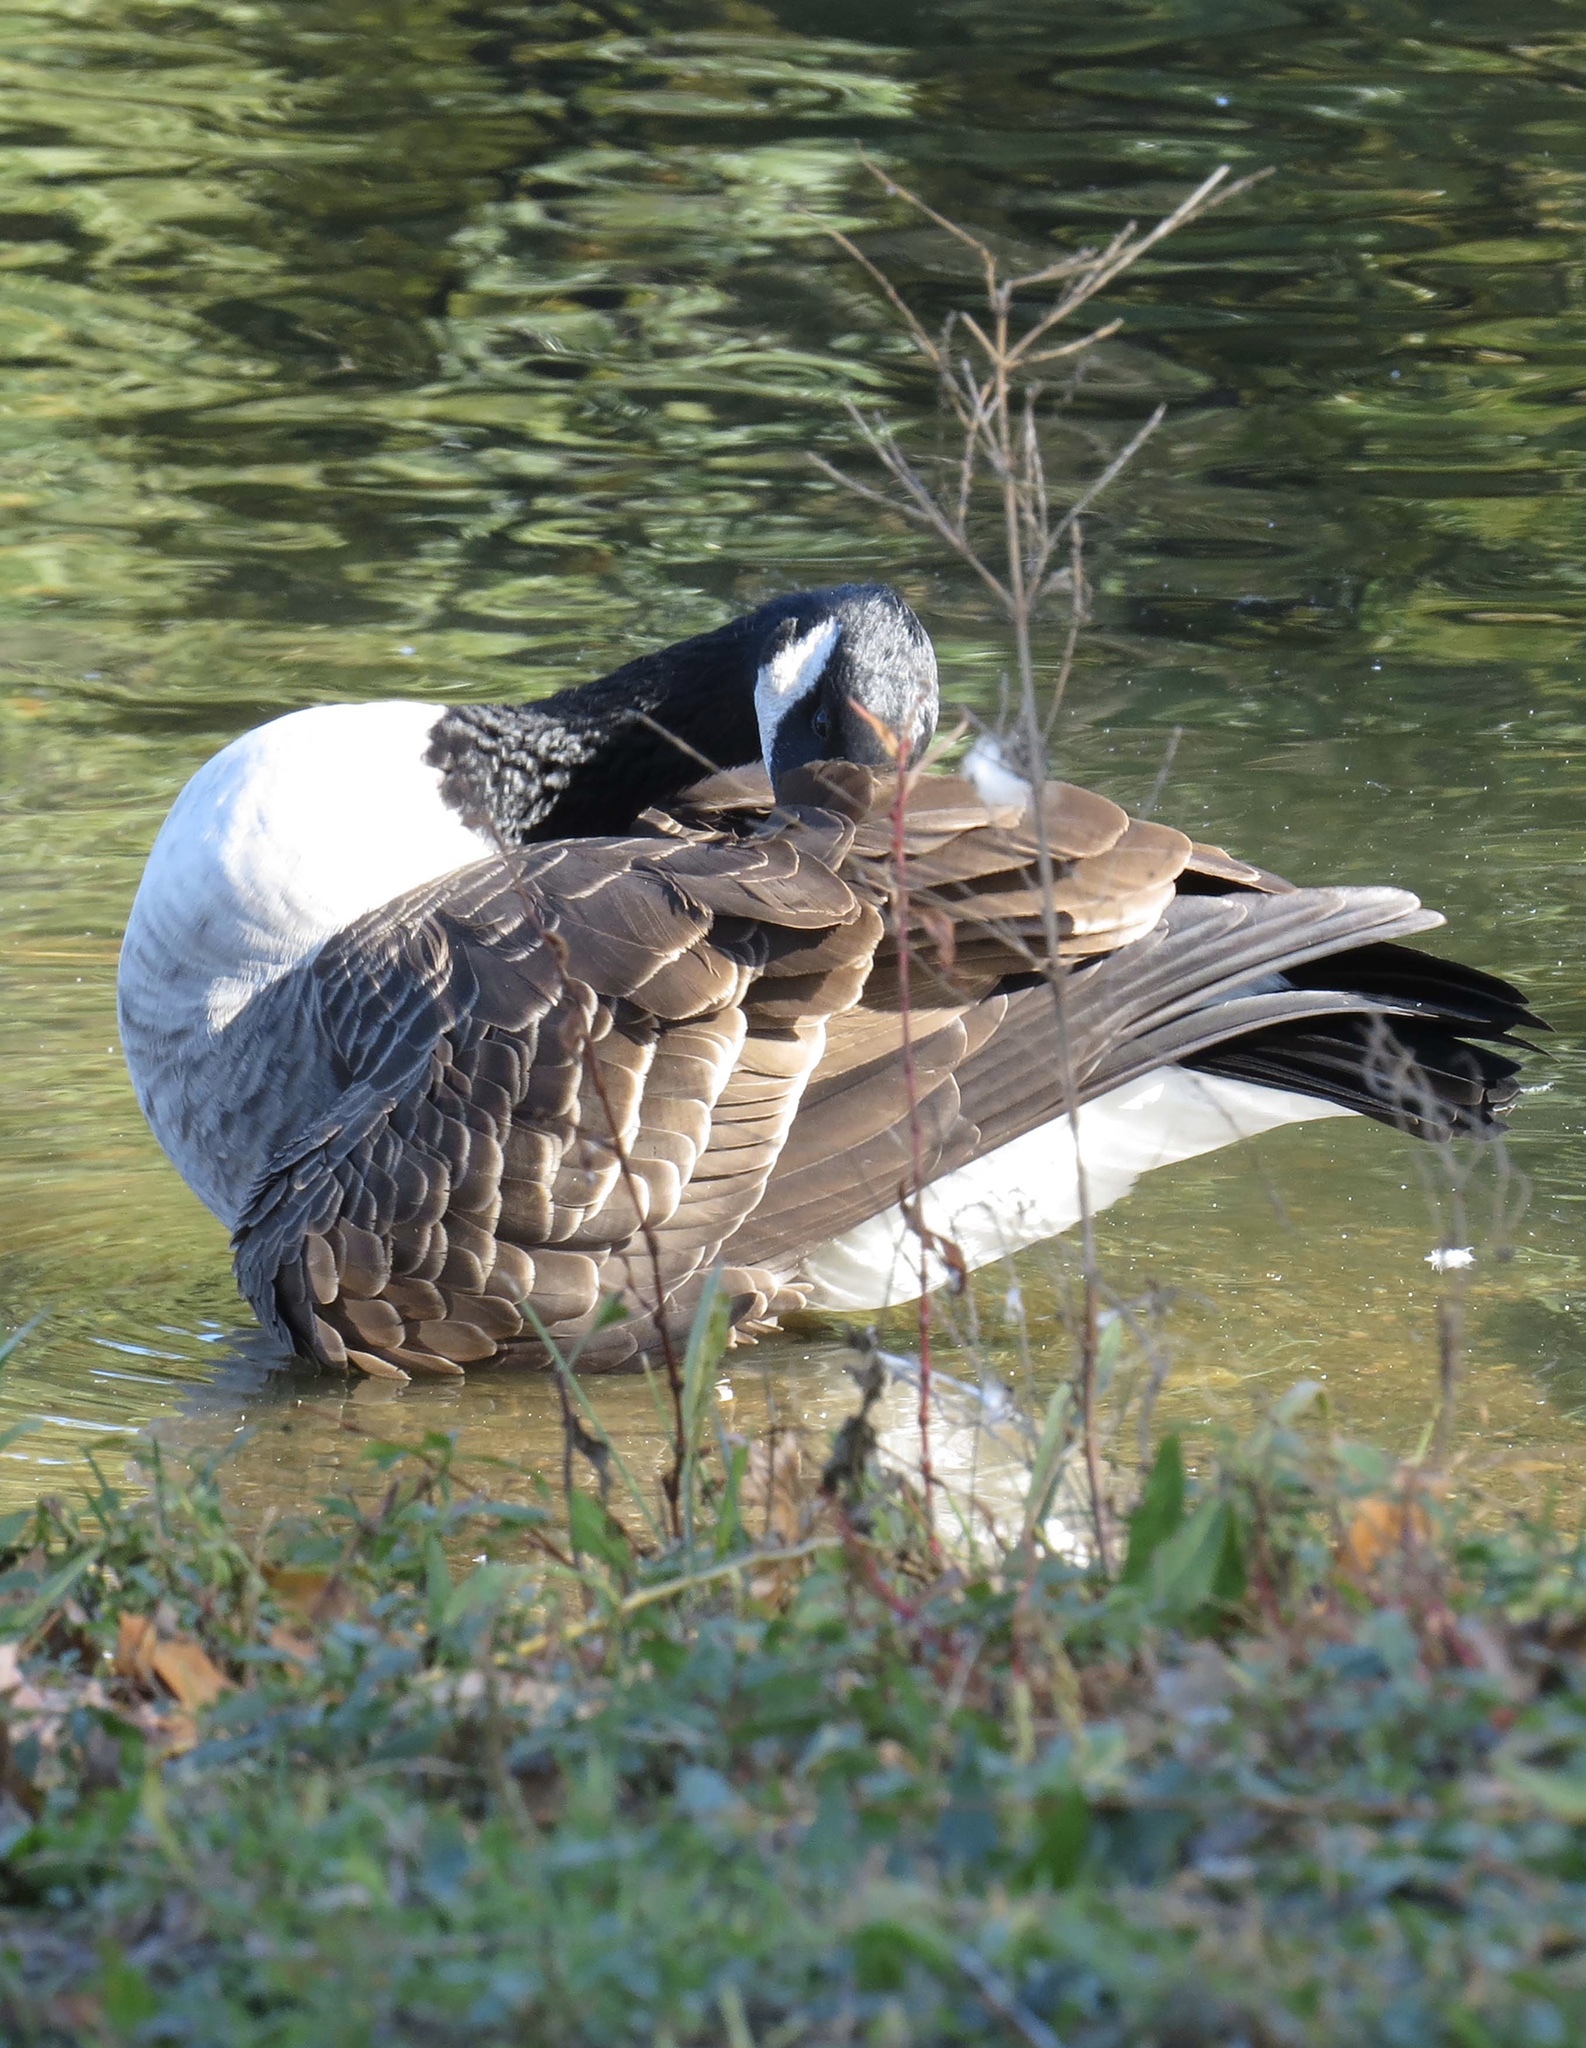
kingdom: Animalia
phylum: Chordata
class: Aves
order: Anseriformes
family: Anatidae
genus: Branta
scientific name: Branta canadensis
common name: Canada goose
